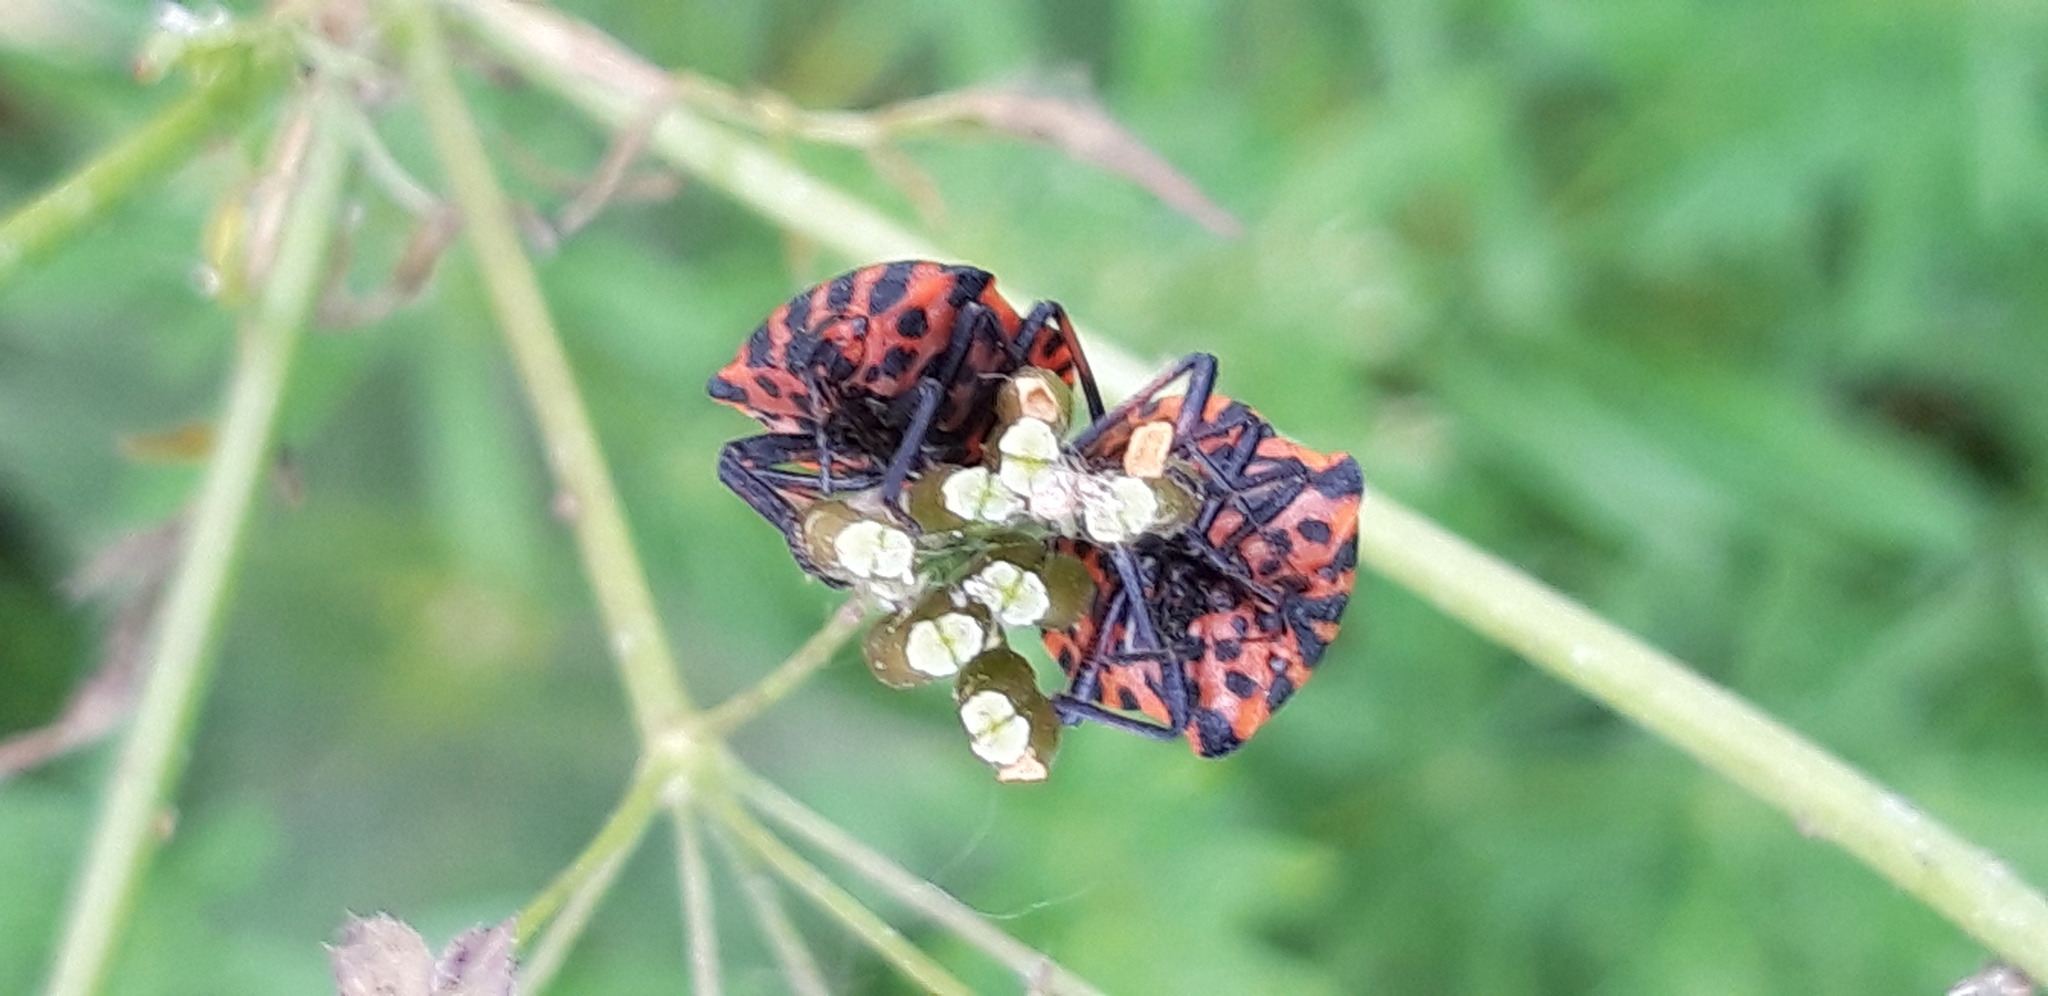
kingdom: Animalia
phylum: Arthropoda
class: Insecta
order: Hemiptera
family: Pentatomidae
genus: Graphosoma
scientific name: Graphosoma italicum
